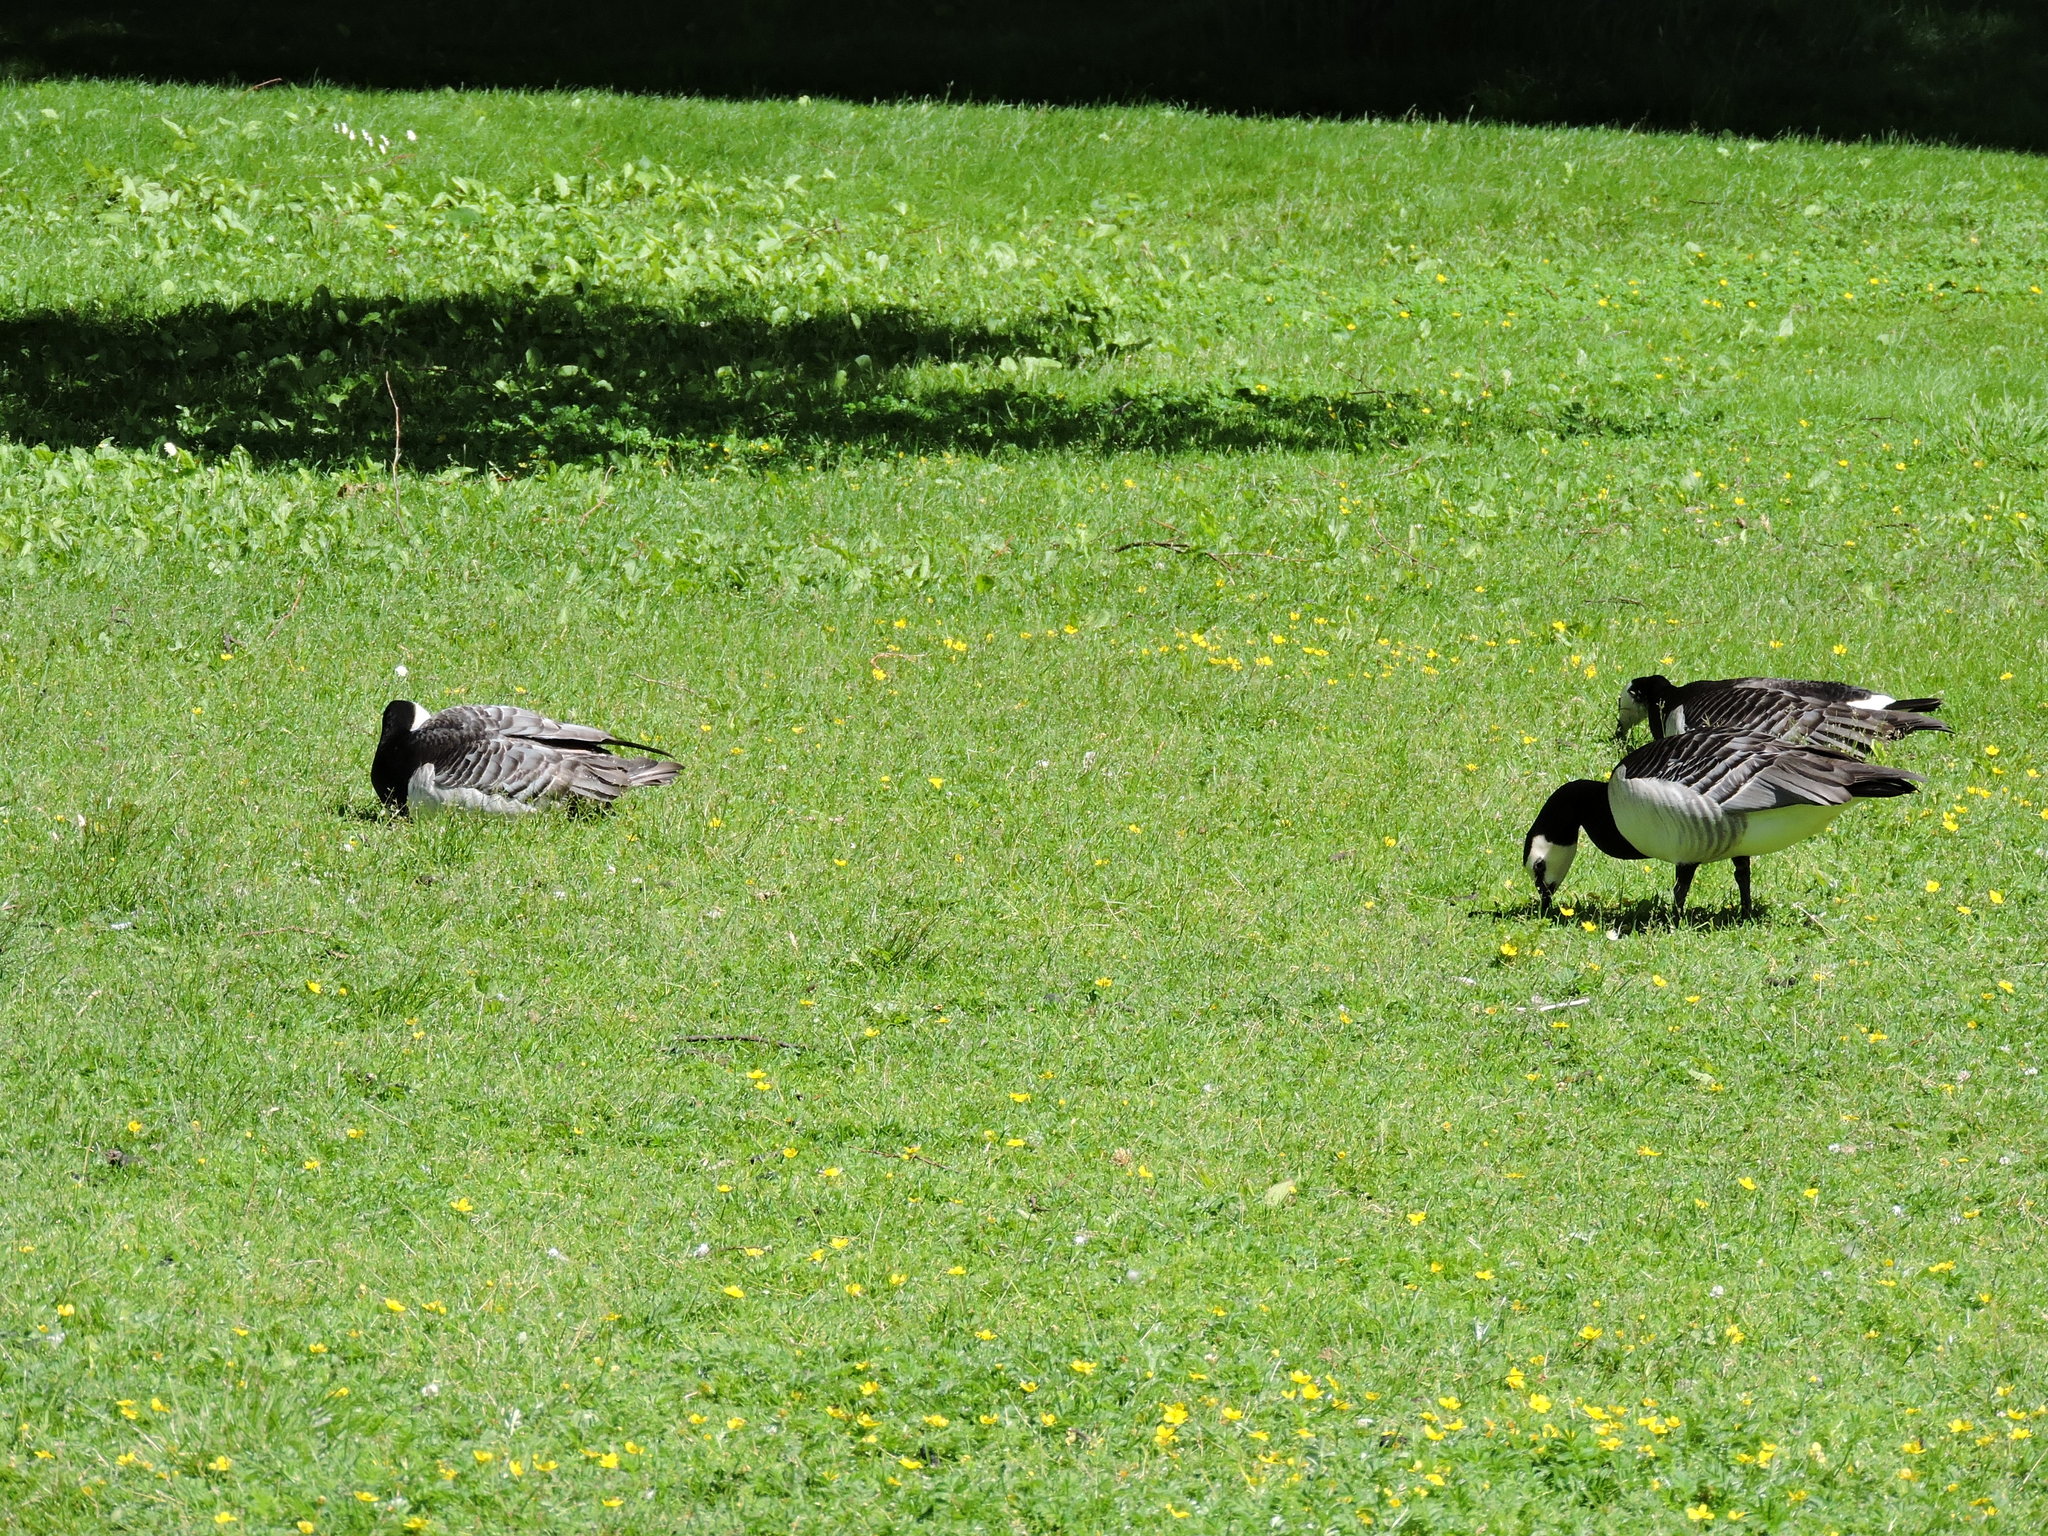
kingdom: Animalia
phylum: Chordata
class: Aves
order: Anseriformes
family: Anatidae
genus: Branta
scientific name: Branta leucopsis
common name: Barnacle goose
